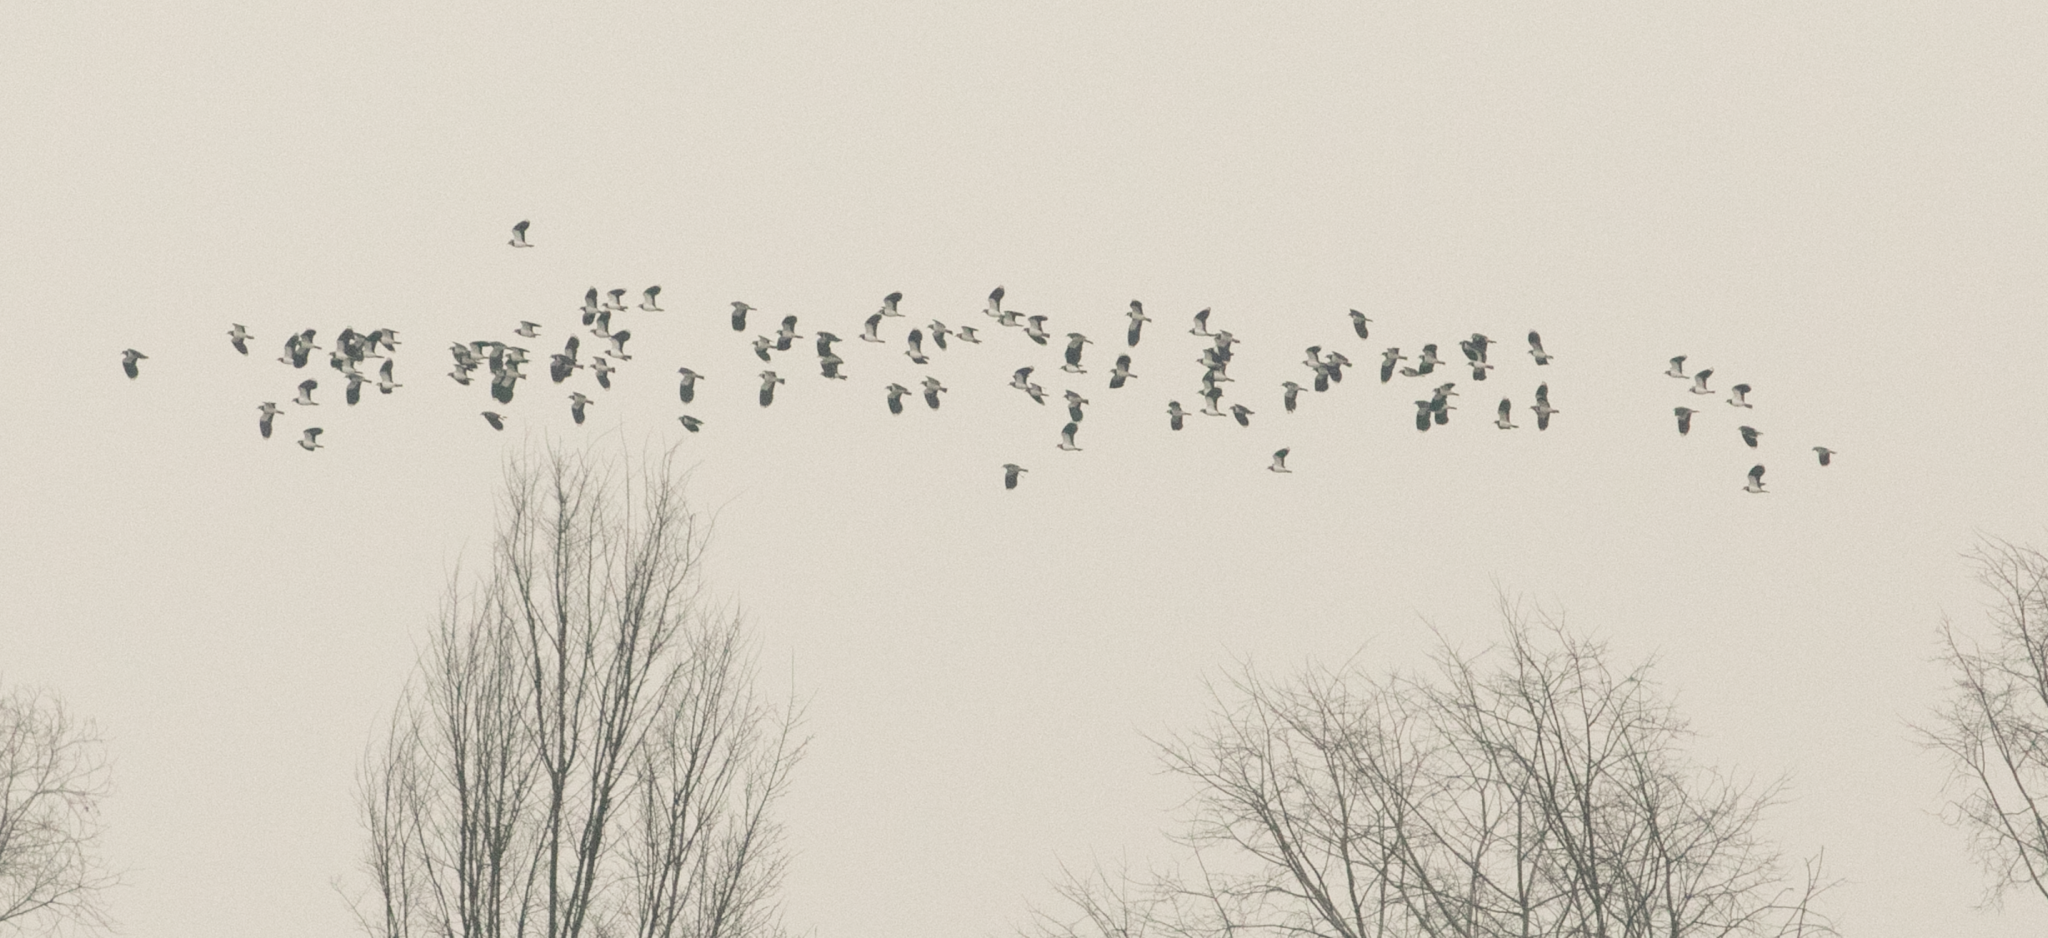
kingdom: Animalia
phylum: Chordata
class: Aves
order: Charadriiformes
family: Charadriidae
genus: Vanellus
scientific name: Vanellus vanellus
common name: Northern lapwing
